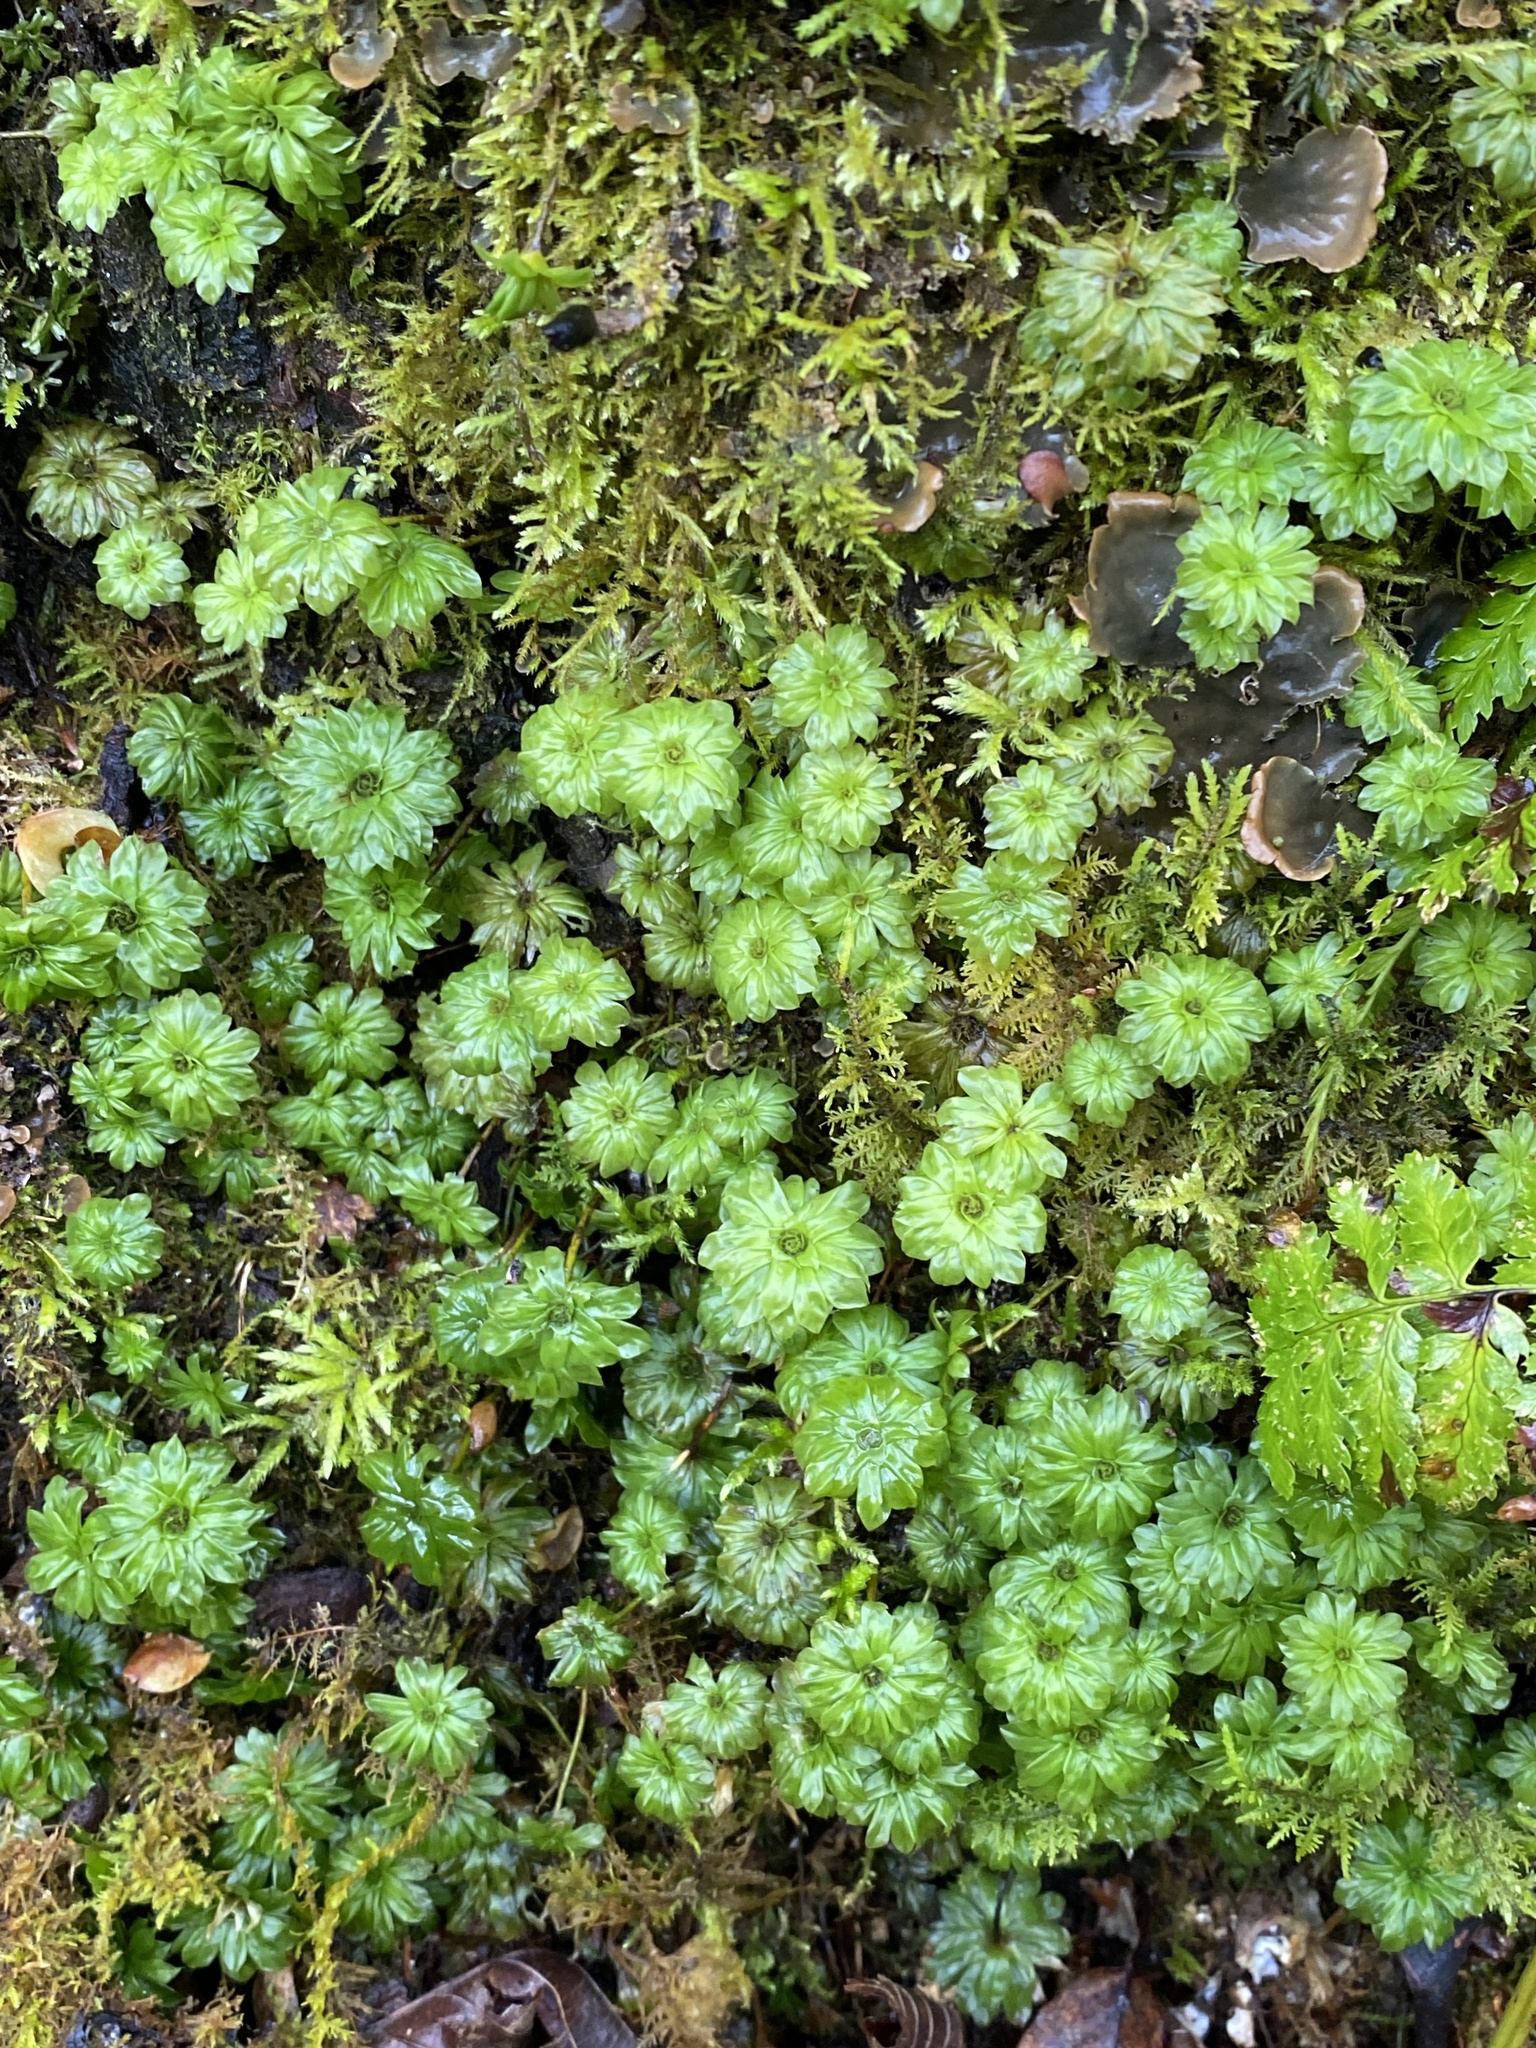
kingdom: Plantae
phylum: Bryophyta
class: Bryopsida
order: Bryales
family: Bryaceae
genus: Rhodobryum
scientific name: Rhodobryum ontariense
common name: Ontario rhodobryum moss
